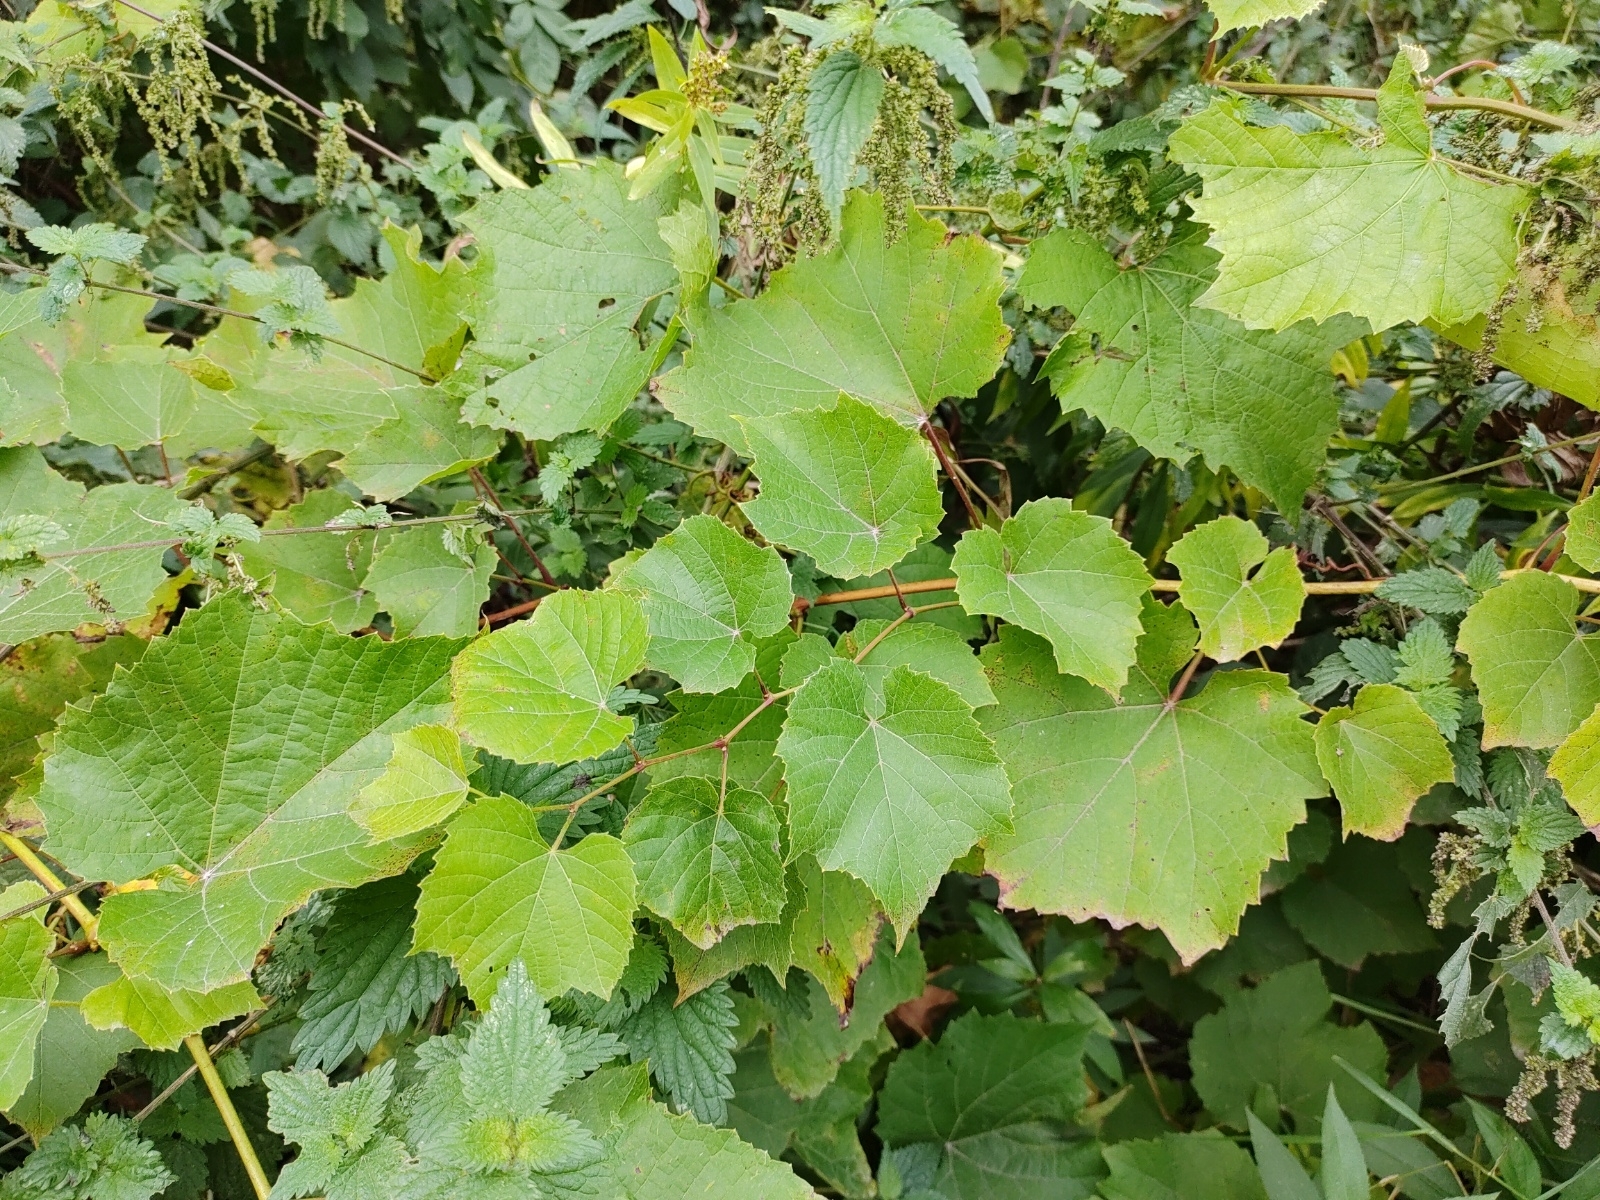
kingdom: Plantae
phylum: Tracheophyta
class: Magnoliopsida
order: Vitales
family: Vitaceae
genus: Vitis
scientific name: Vitis vinifera
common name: Grape-vine
